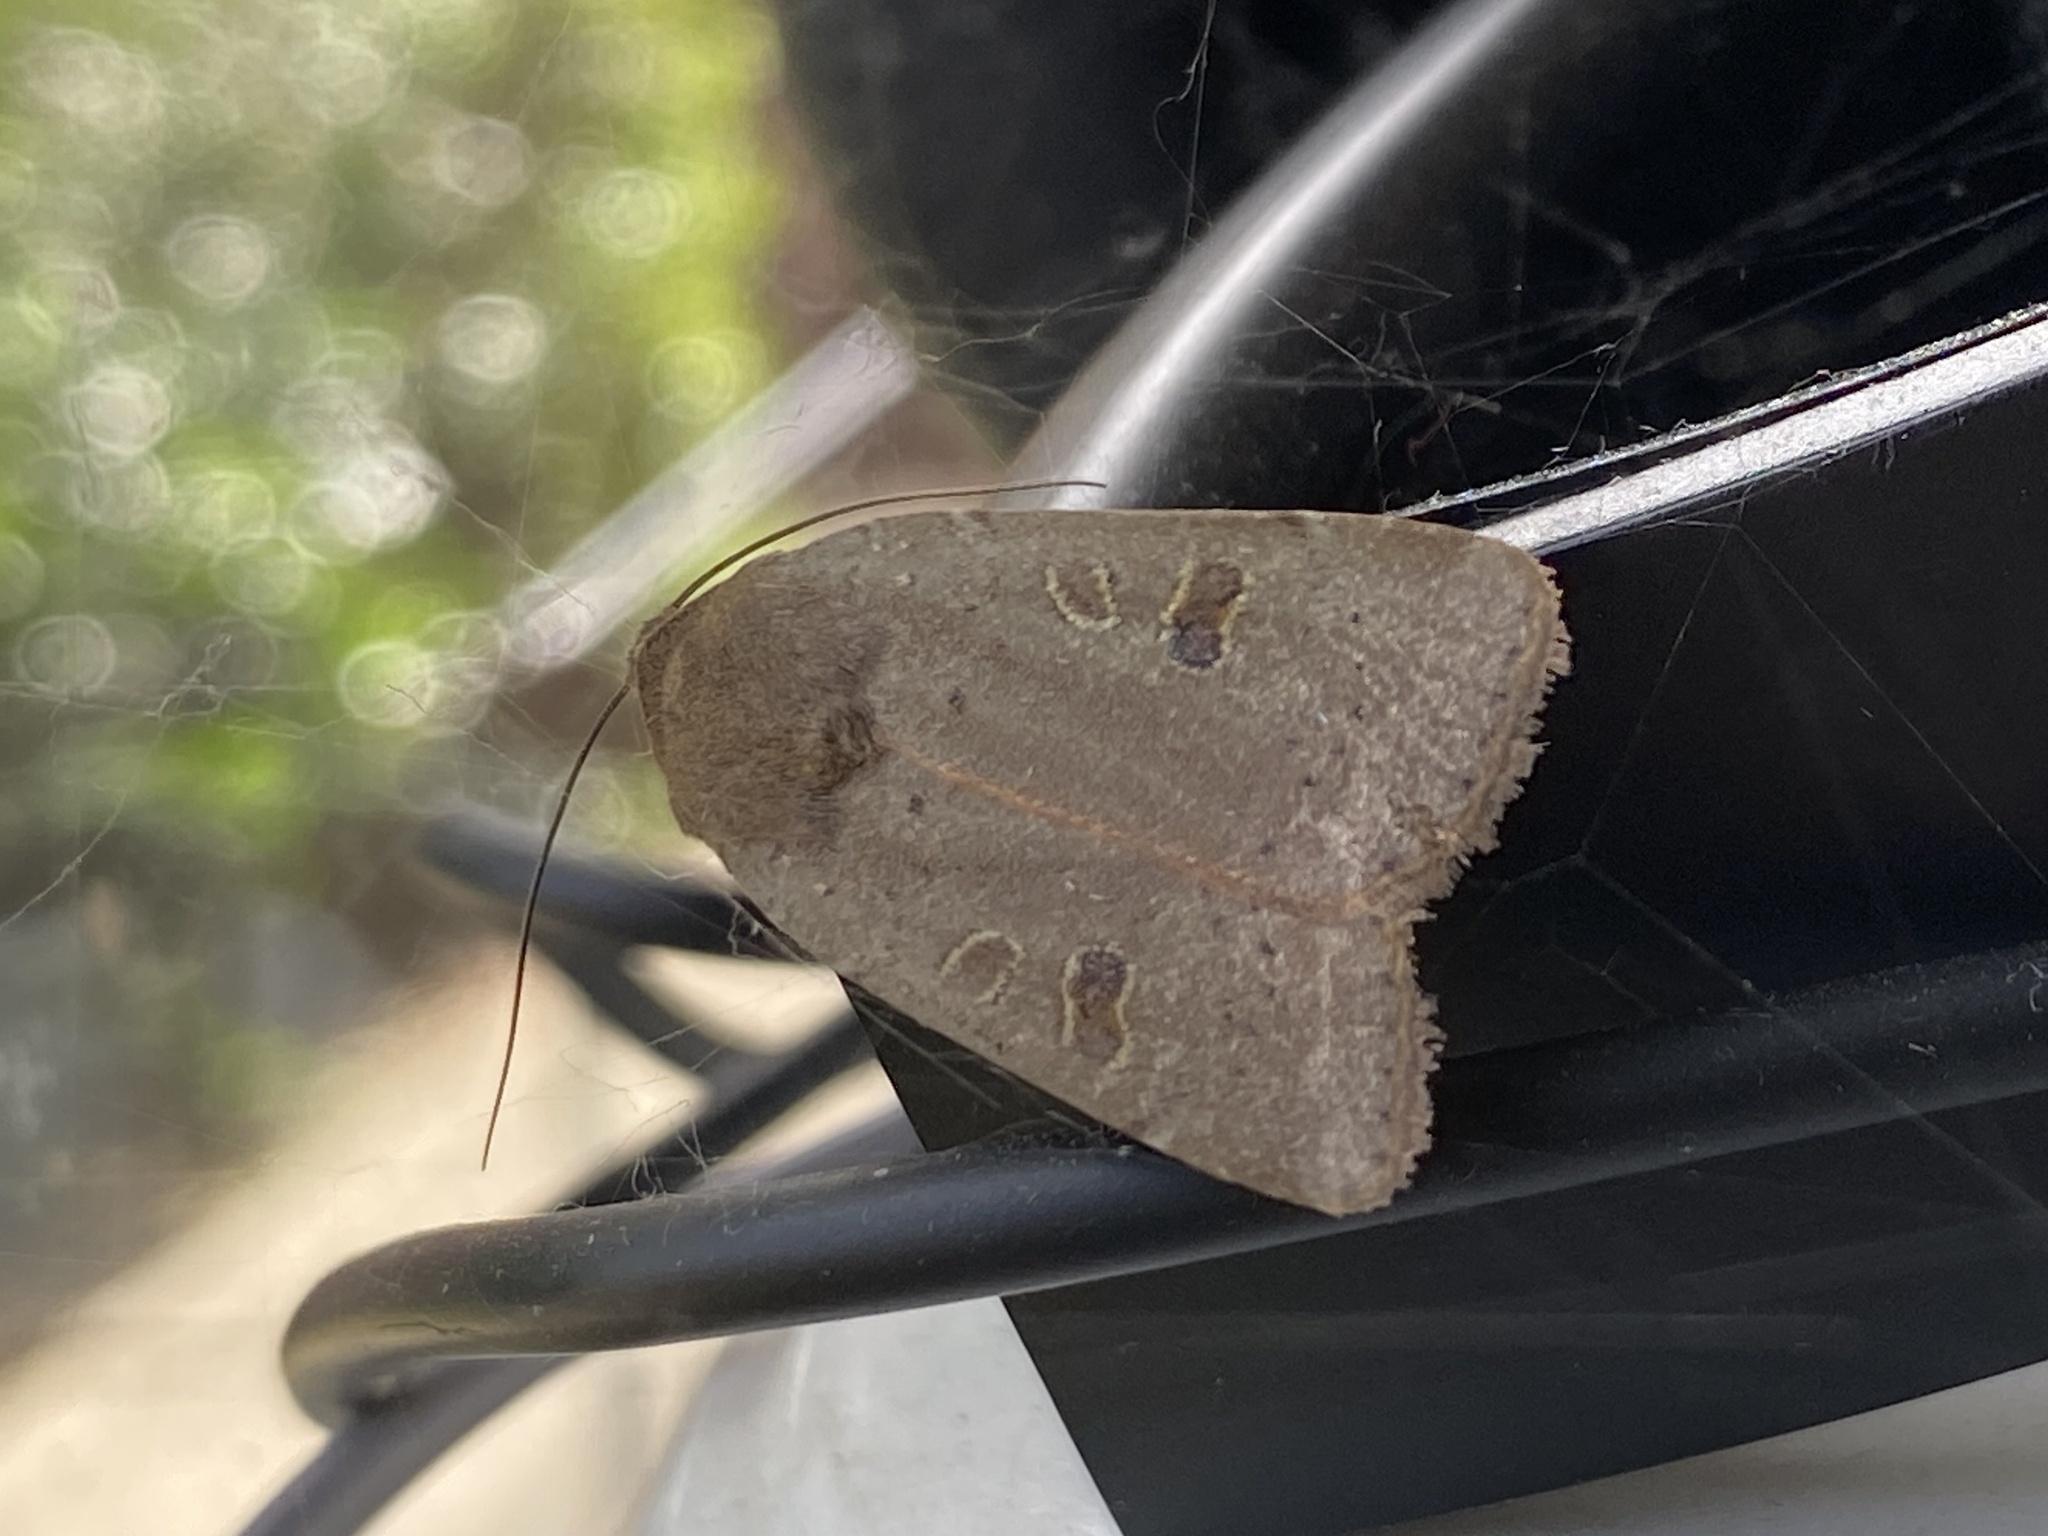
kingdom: Animalia
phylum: Arthropoda
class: Insecta
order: Lepidoptera
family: Noctuidae
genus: Noctua
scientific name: Noctua comes
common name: Lesser yellow underwing
